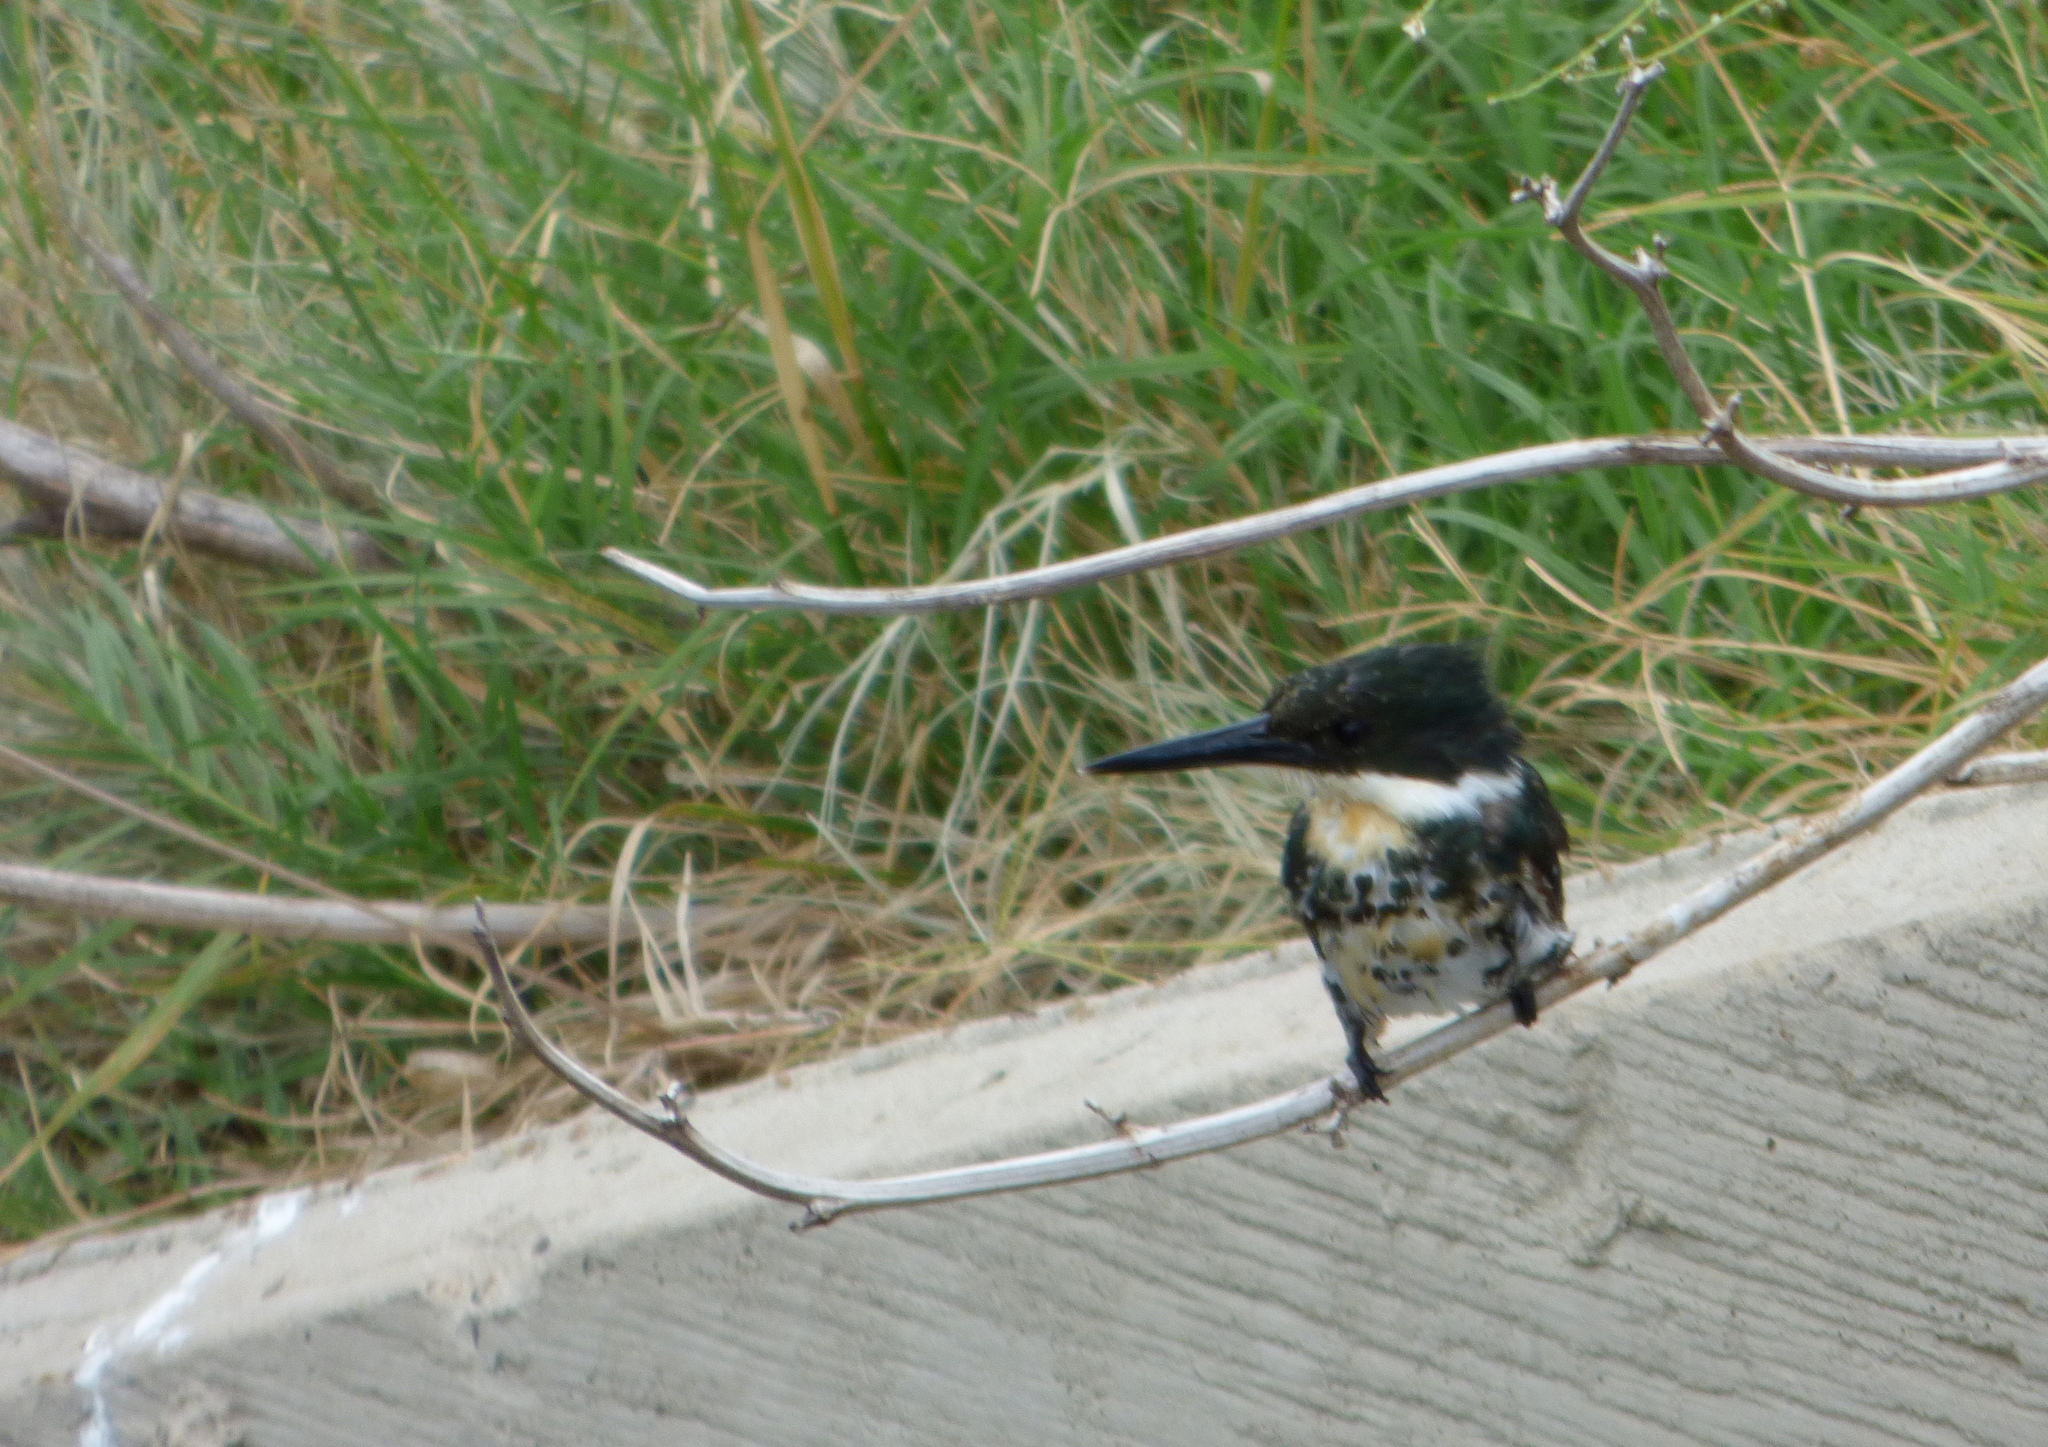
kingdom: Animalia
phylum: Chordata
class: Aves
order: Coraciiformes
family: Alcedinidae
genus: Chloroceryle
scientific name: Chloroceryle americana
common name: Green kingfisher
